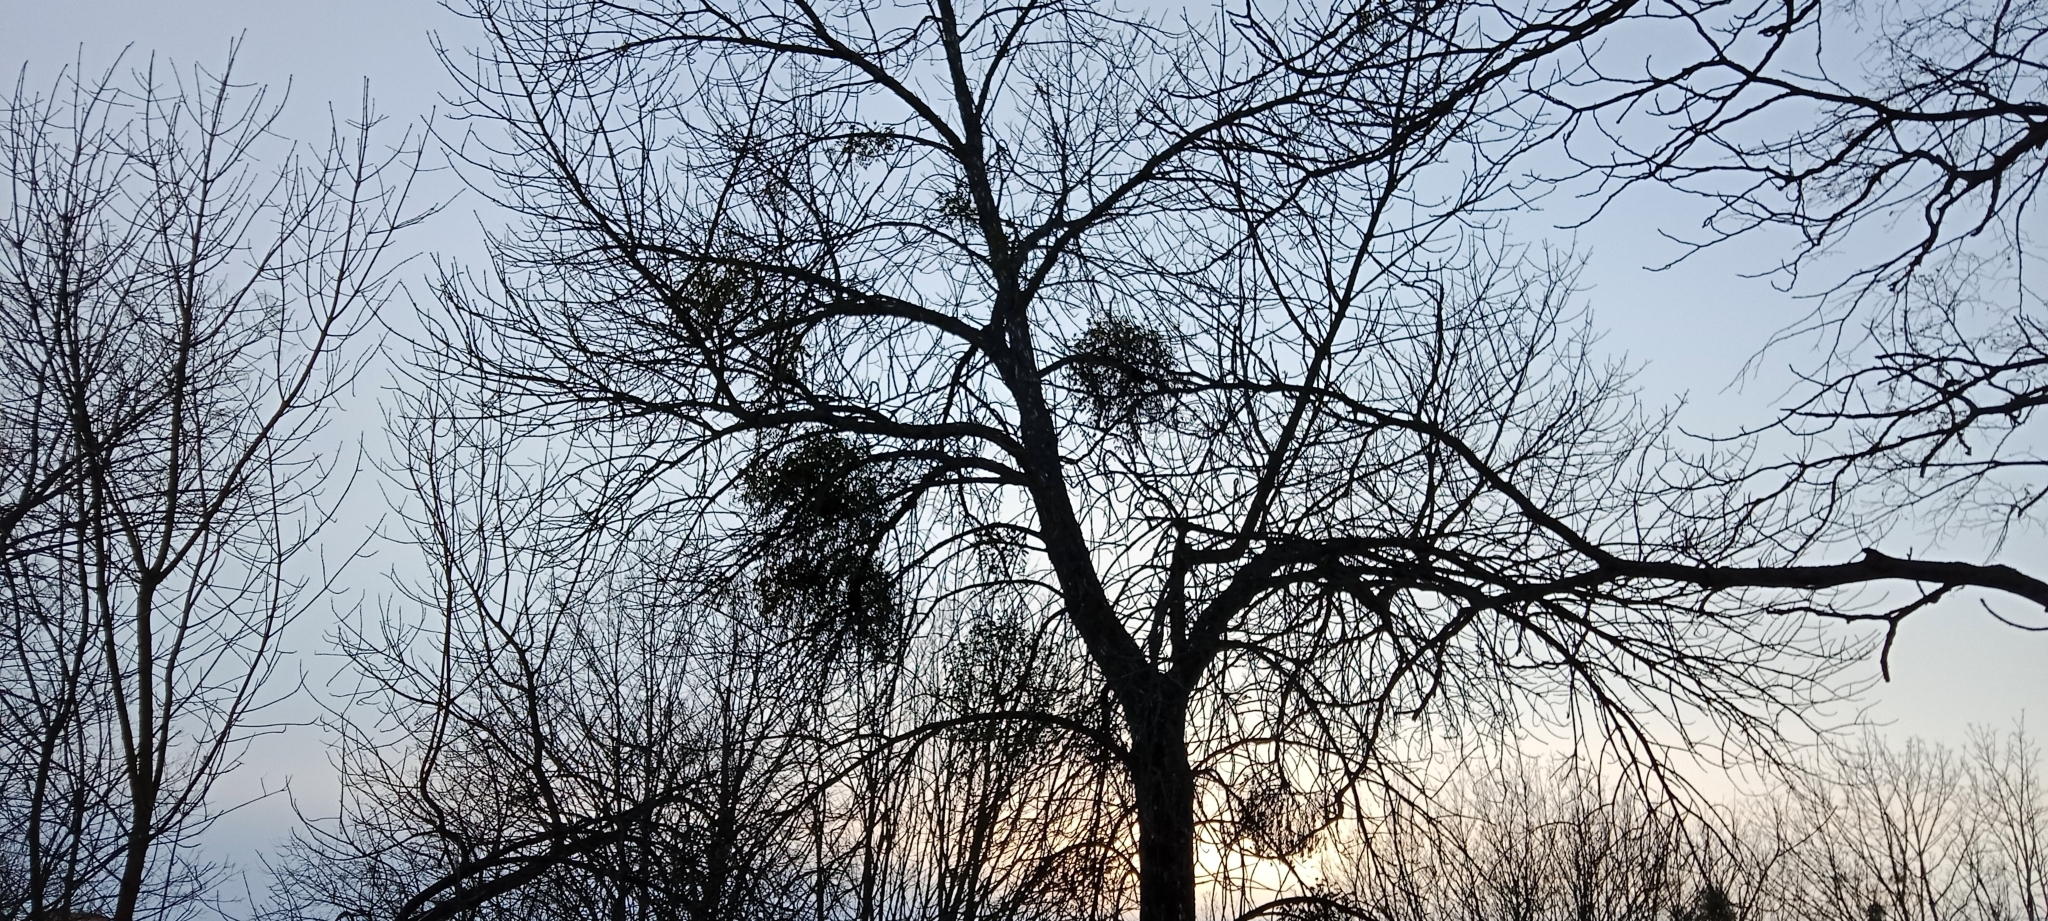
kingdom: Plantae
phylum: Tracheophyta
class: Magnoliopsida
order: Santalales
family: Viscaceae
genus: Viscum
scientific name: Viscum album
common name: Mistletoe
